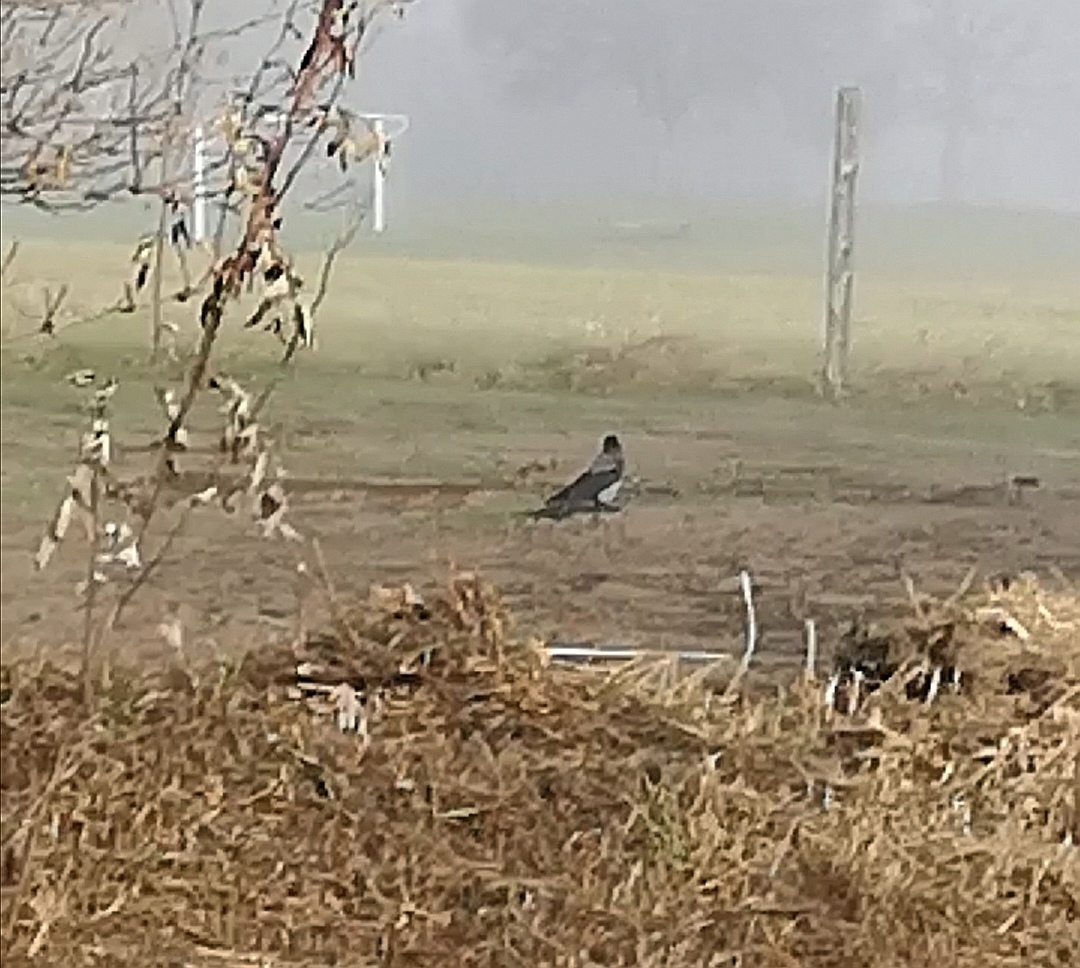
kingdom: Animalia
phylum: Chordata
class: Aves
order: Passeriformes
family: Corvidae
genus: Corvus
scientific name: Corvus cornix
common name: Hooded crow
